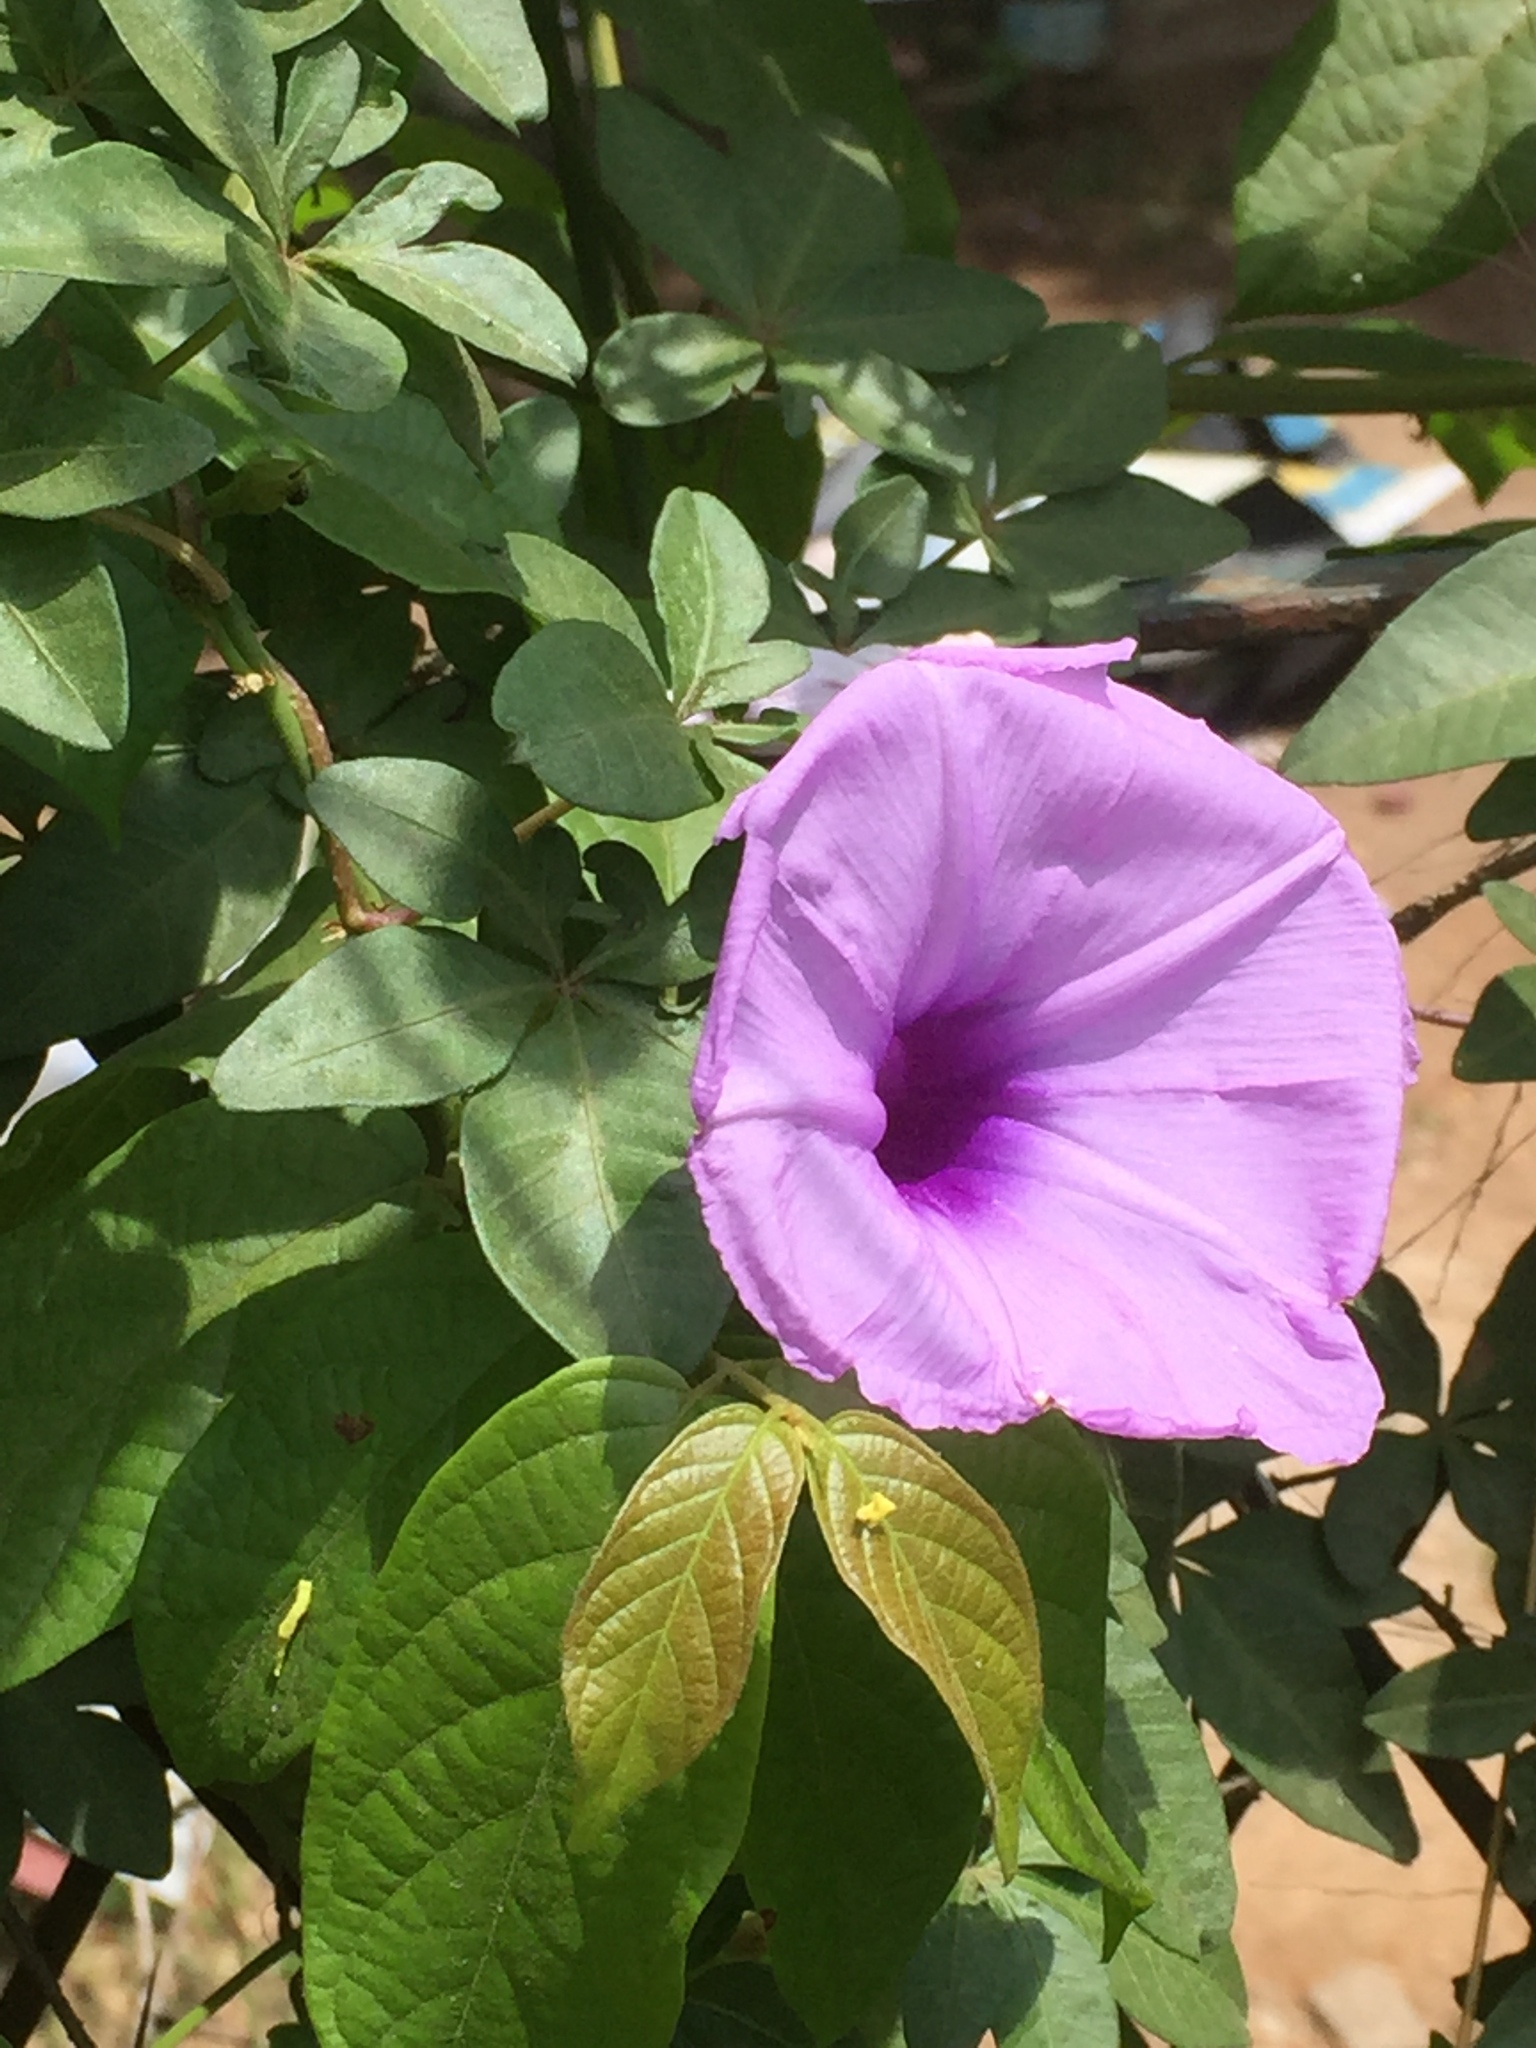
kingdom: Plantae
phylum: Tracheophyta
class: Magnoliopsida
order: Solanales
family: Convolvulaceae
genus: Ipomoea
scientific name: Ipomoea cairica
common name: Mile a minute vine
